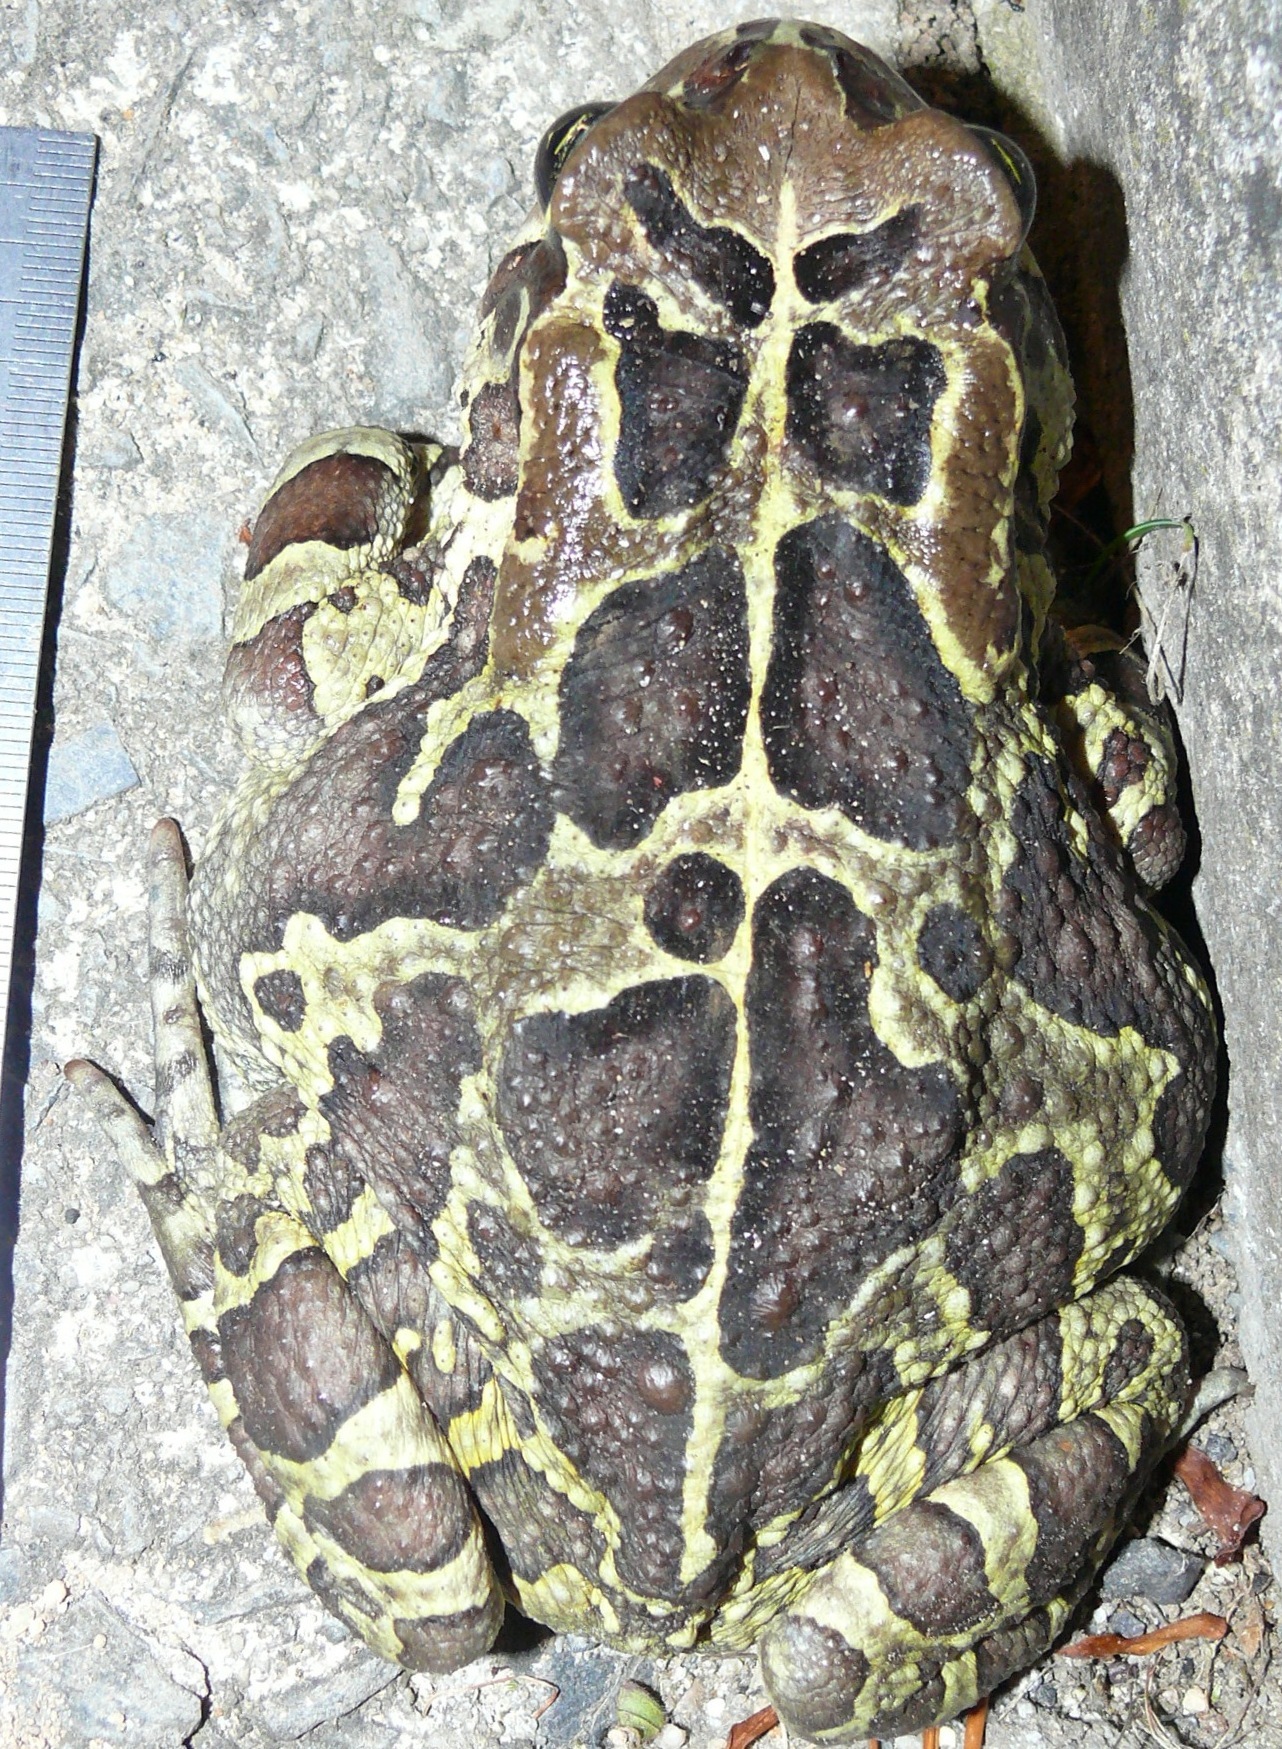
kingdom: Animalia
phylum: Chordata
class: Amphibia
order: Anura
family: Bufonidae
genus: Sclerophrys
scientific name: Sclerophrys pantherina
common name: Panther toad
